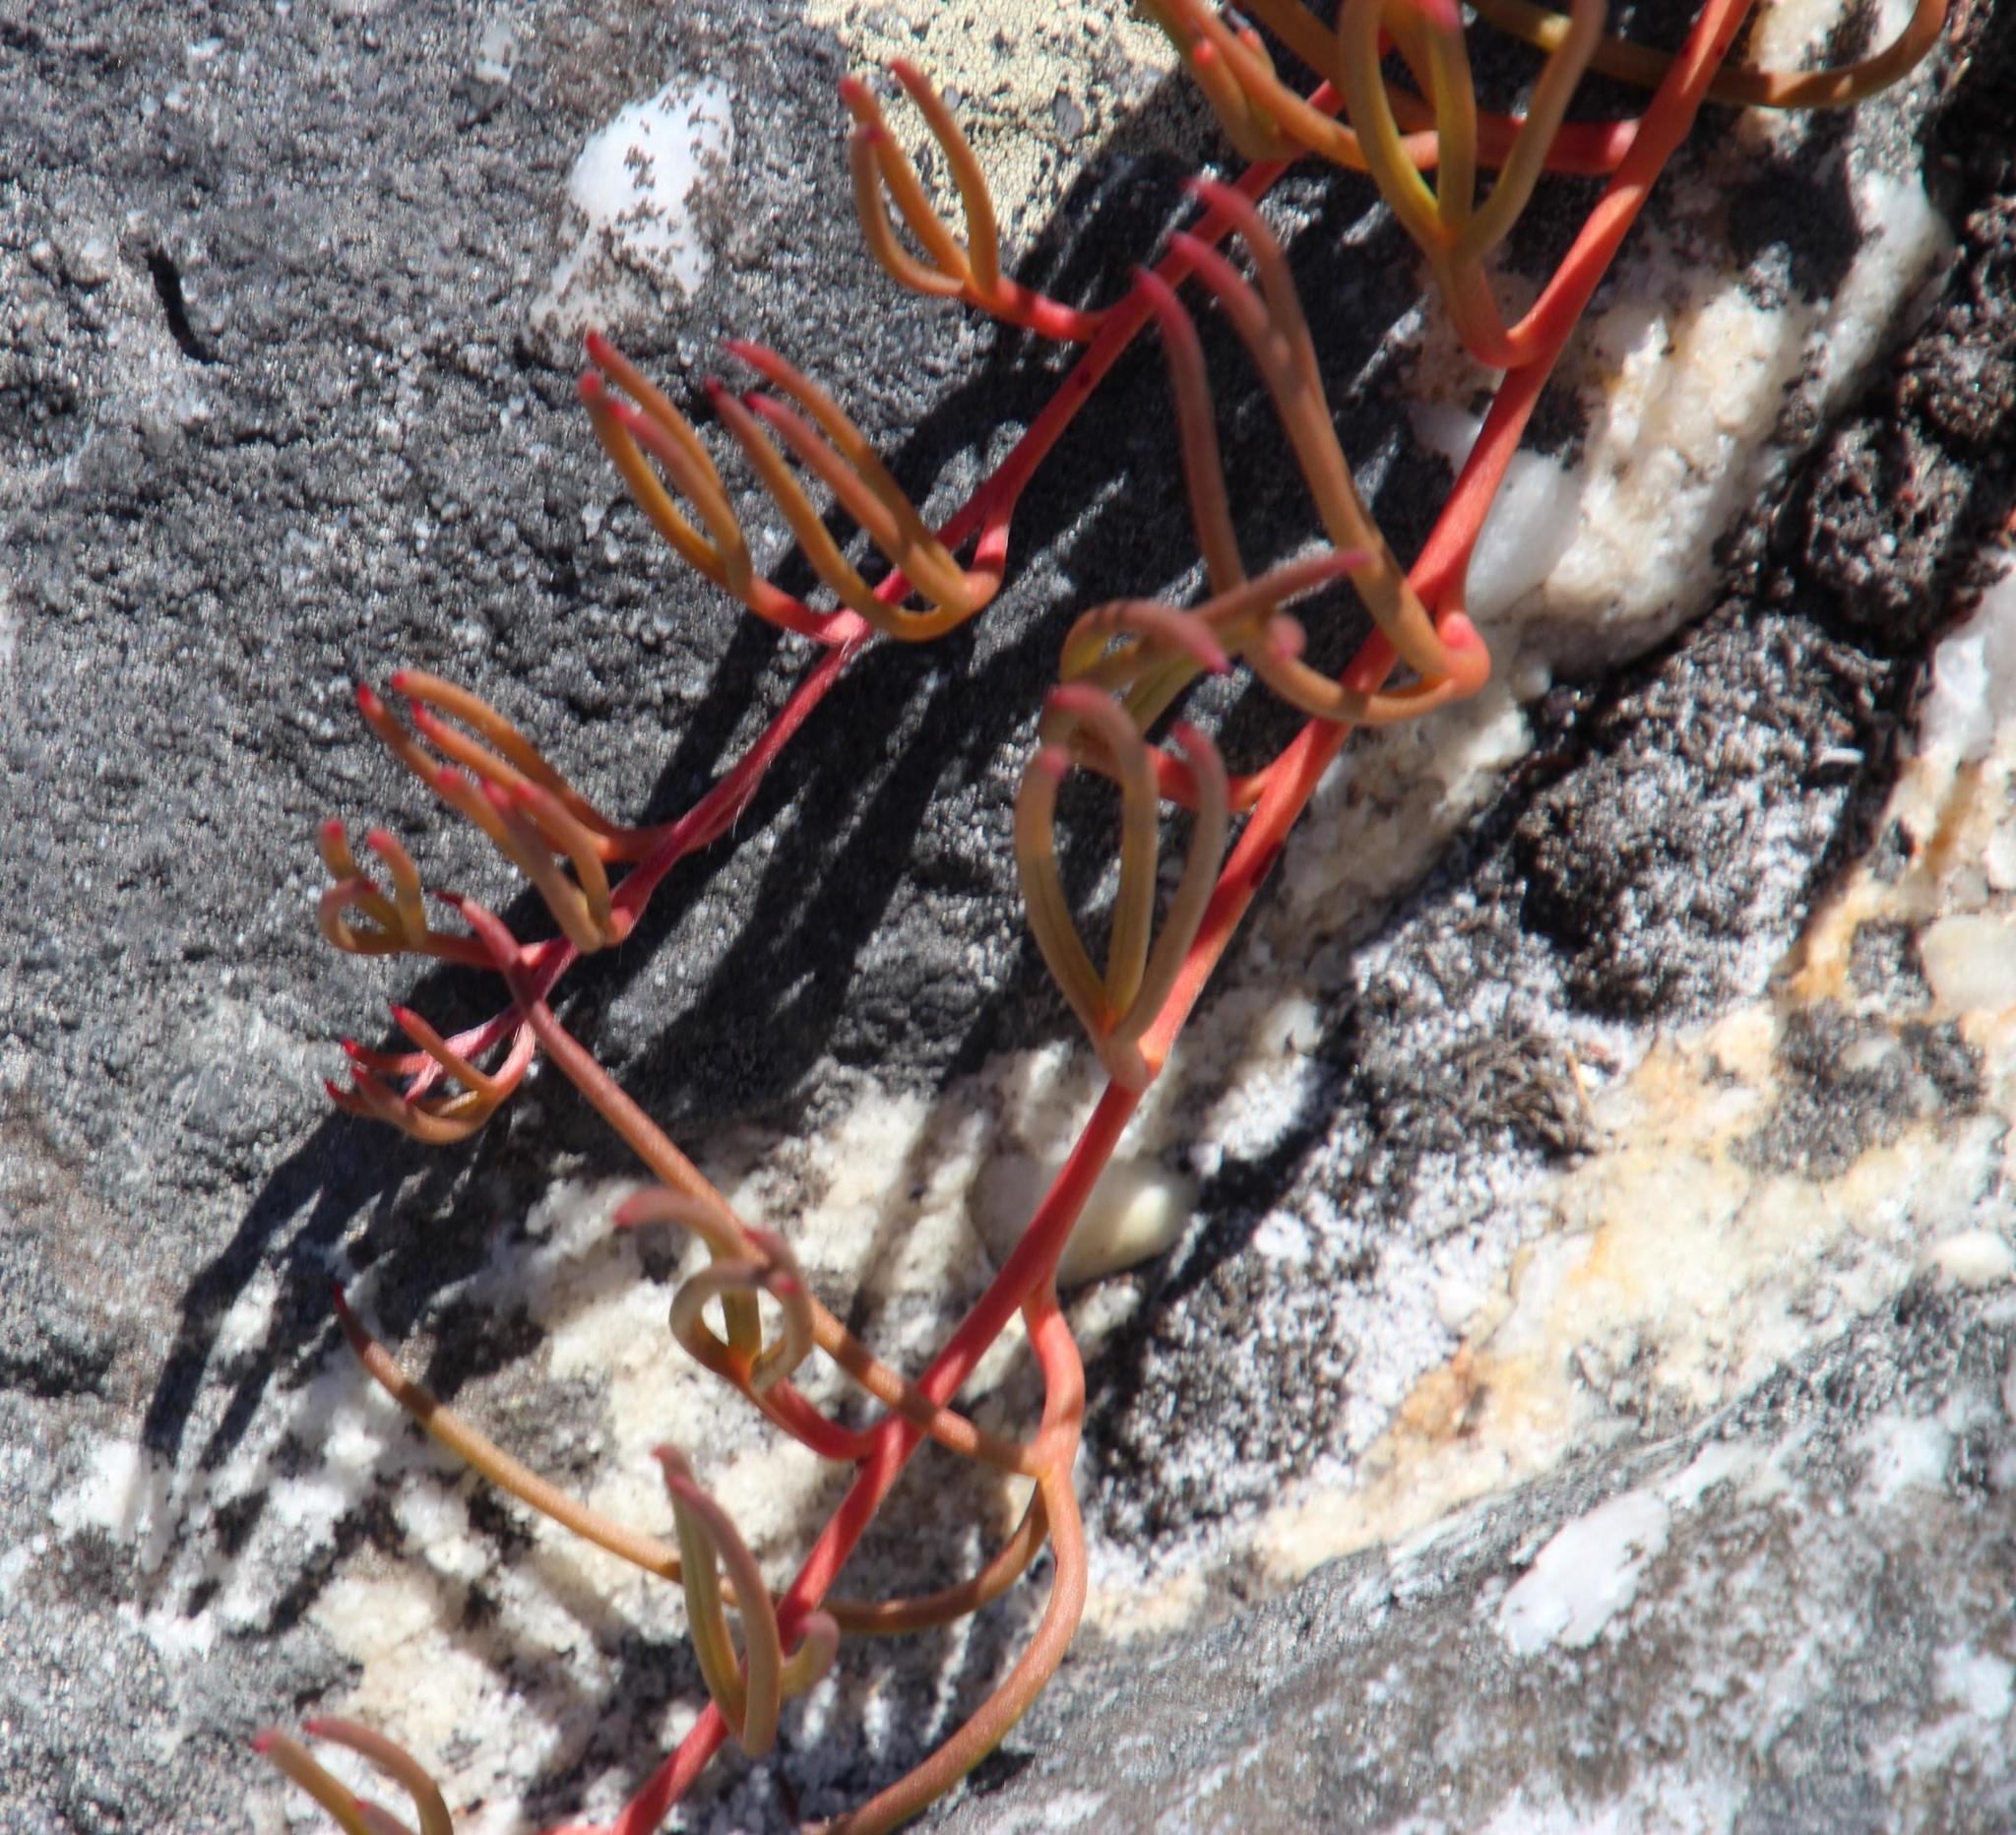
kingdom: Plantae
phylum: Tracheophyta
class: Magnoliopsida
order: Proteales
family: Proteaceae
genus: Serruria
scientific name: Serruria decumbens
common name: Peninsula spiderhead
